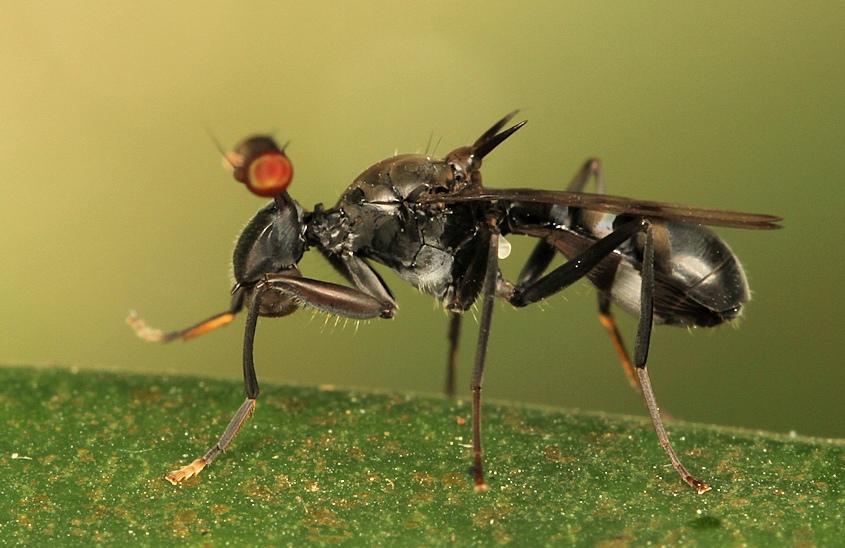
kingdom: Animalia
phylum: Arthropoda
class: Insecta
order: Diptera
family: Diopsidae
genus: Chaetodiopsis
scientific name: Chaetodiopsis
